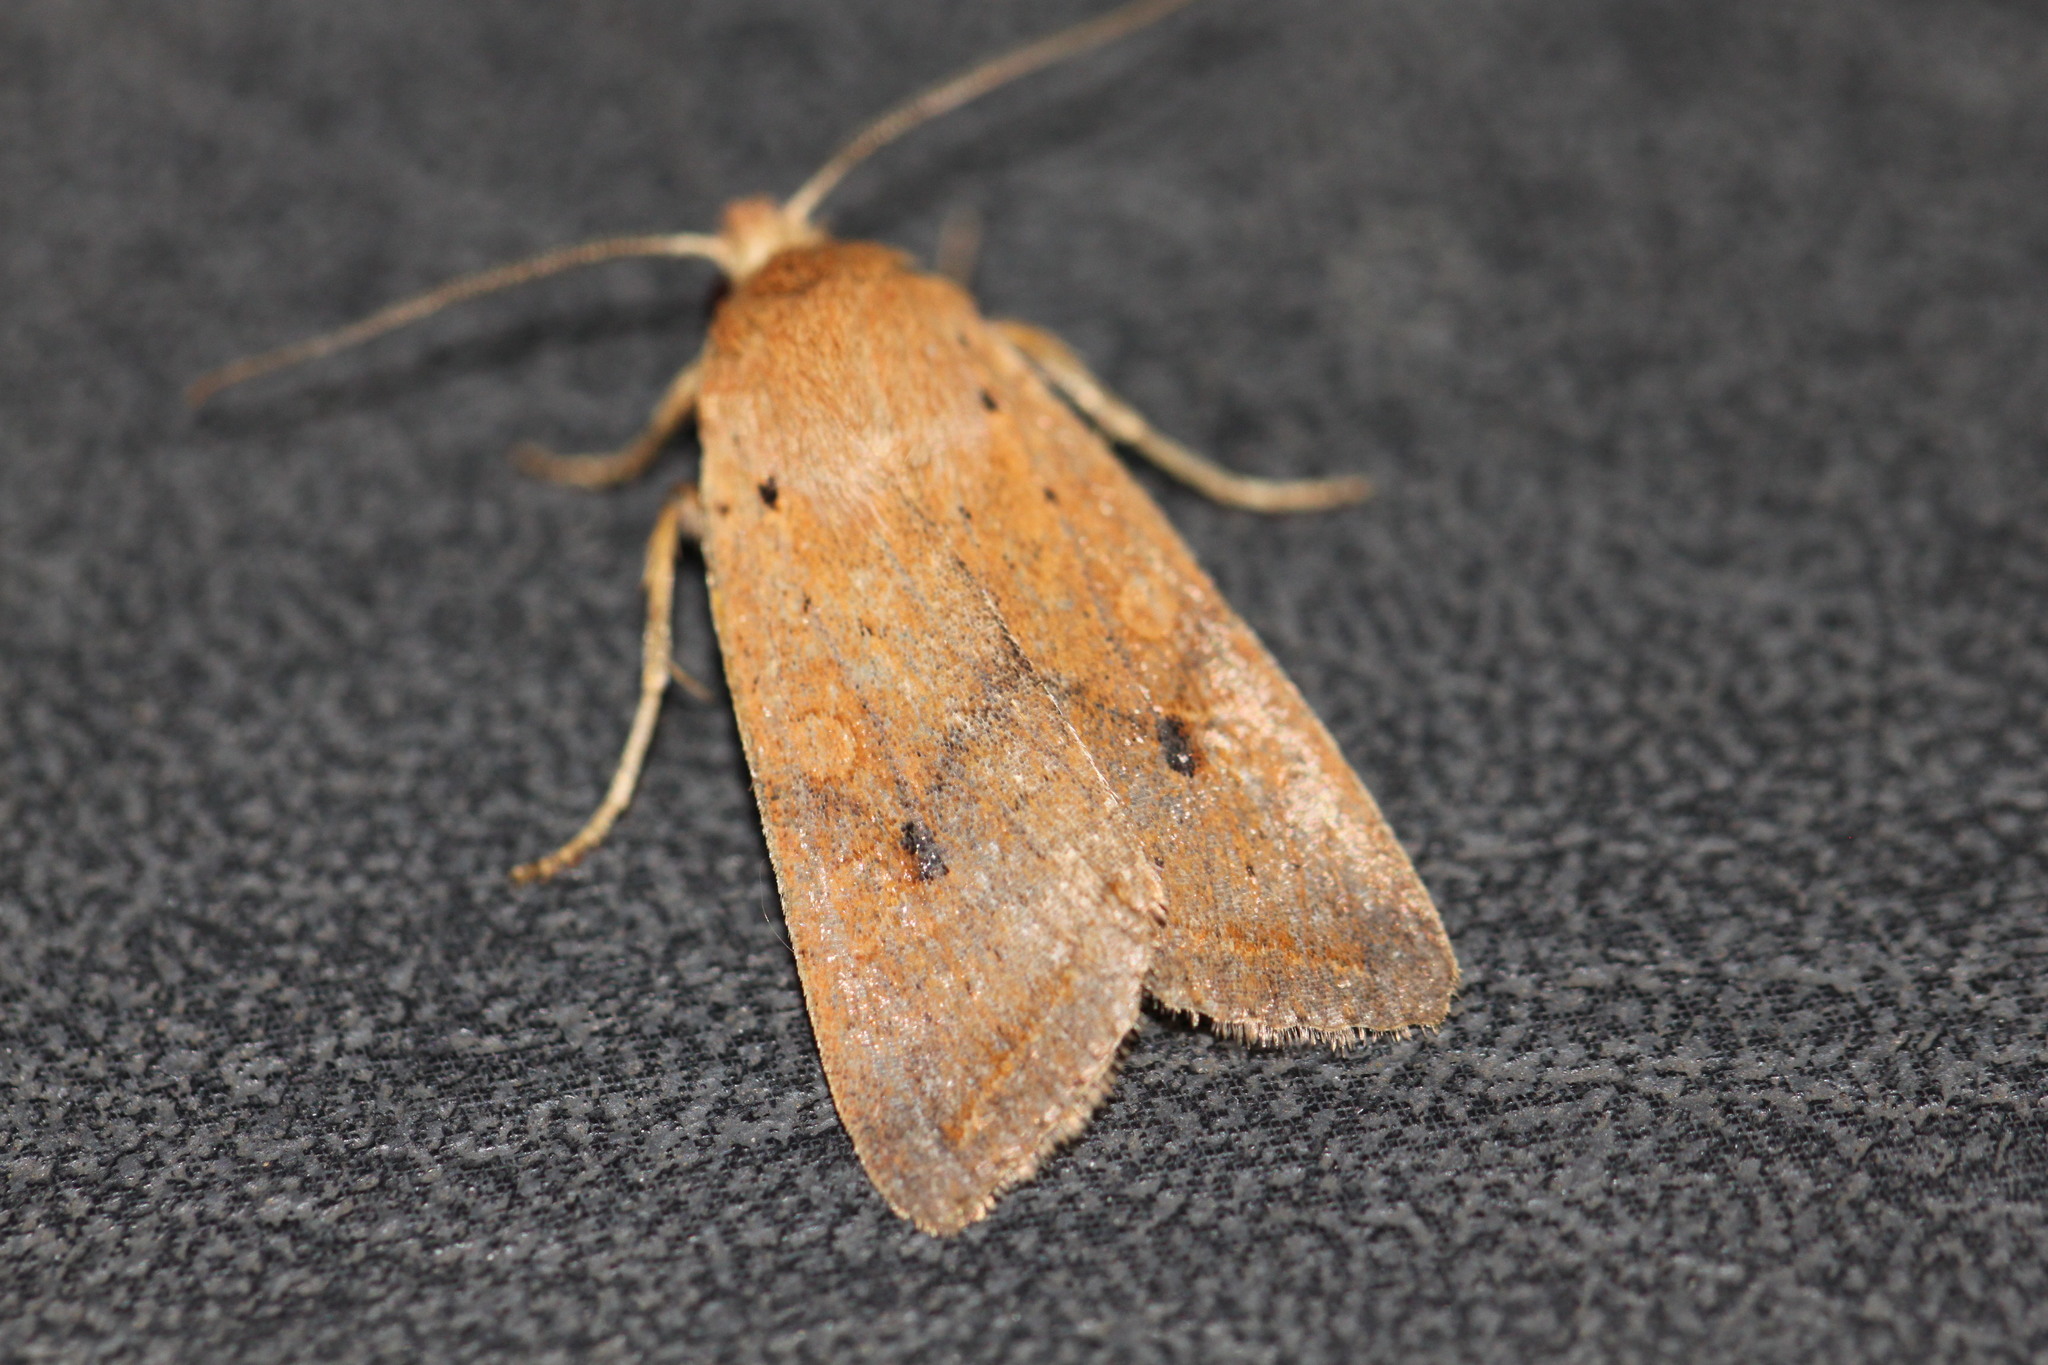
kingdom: Animalia
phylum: Arthropoda
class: Insecta
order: Lepidoptera
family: Noctuidae
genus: Agrochola
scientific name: Agrochola macilenta
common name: Yellow-line quaker
